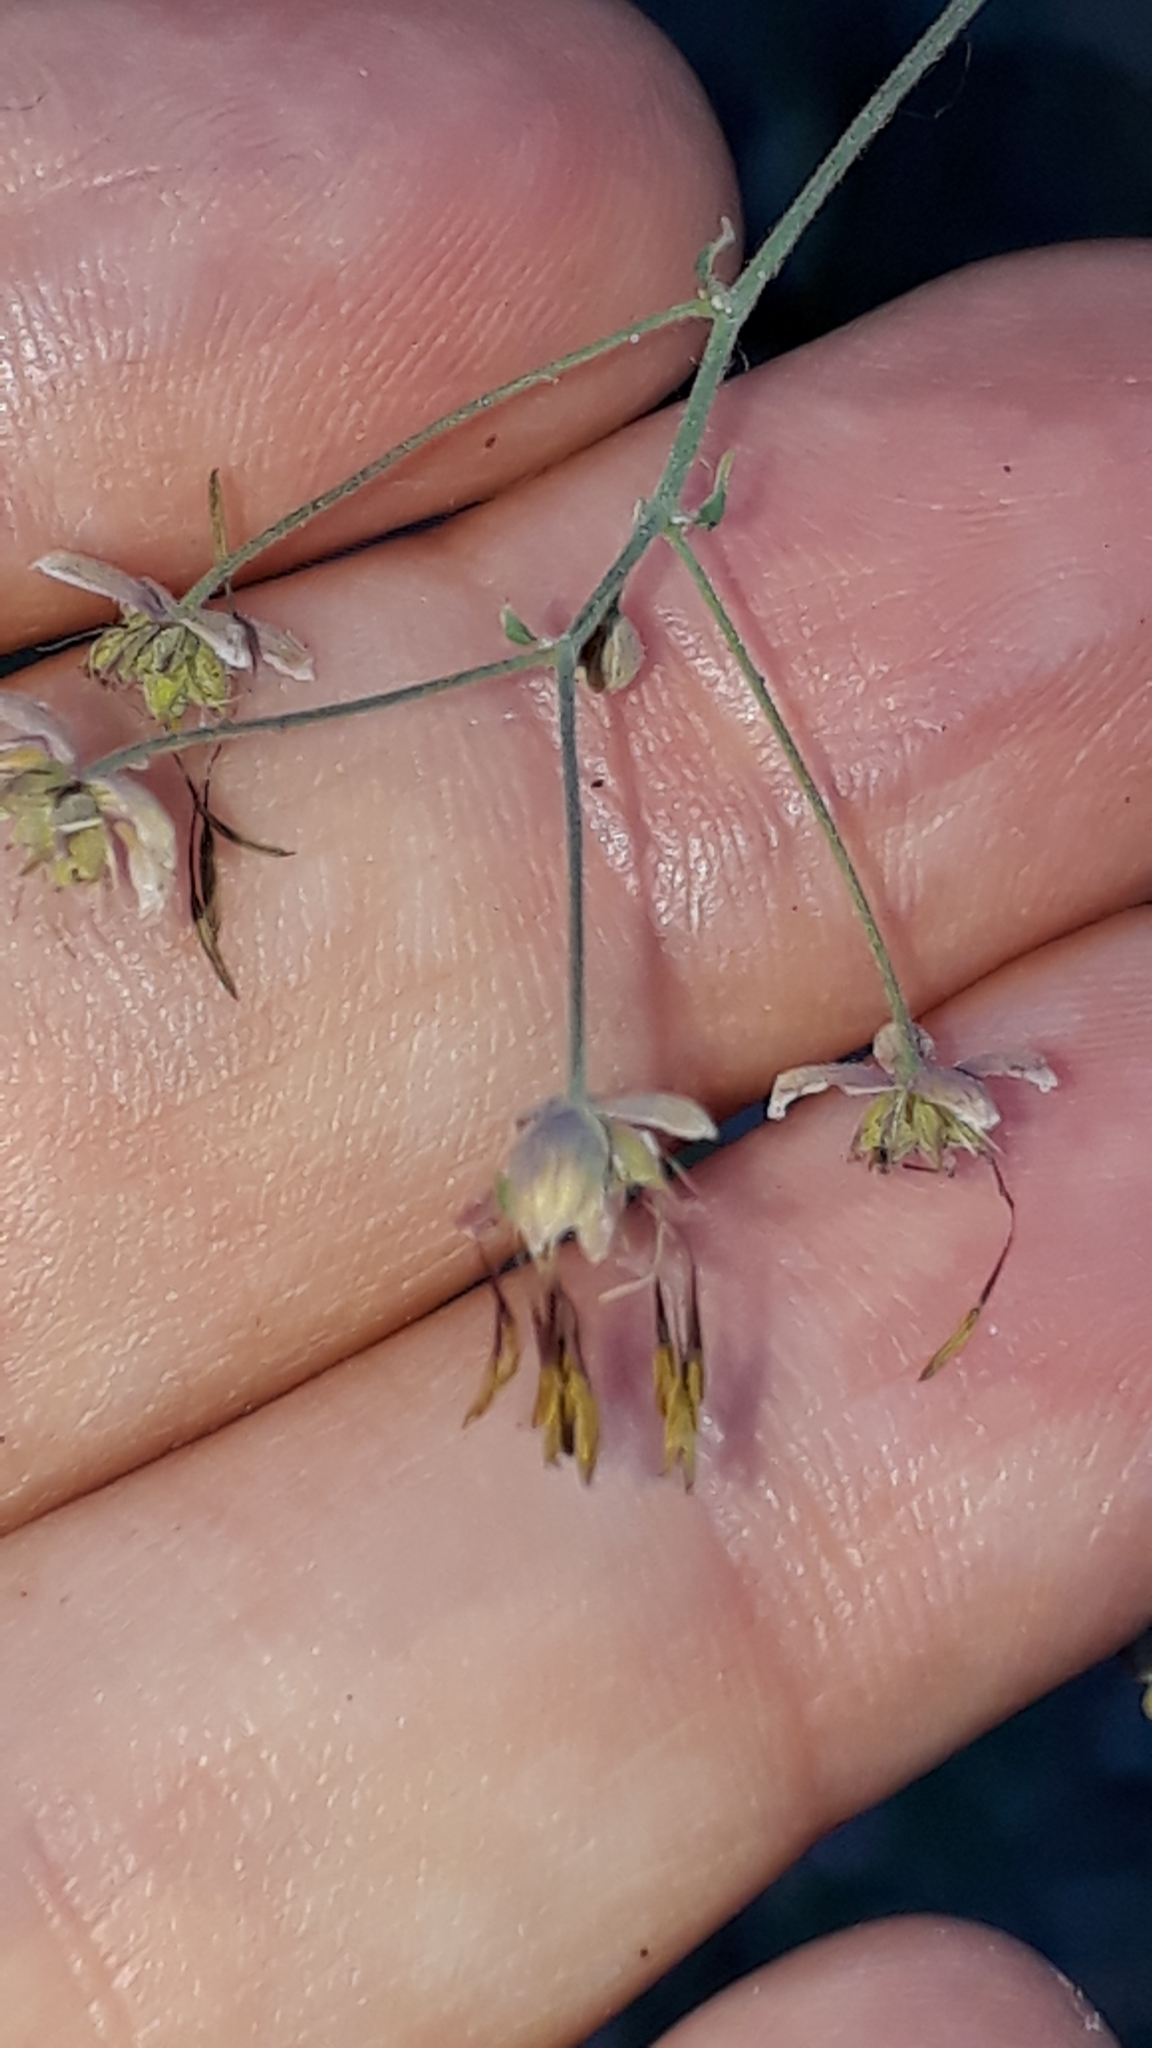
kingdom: Plantae
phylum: Tracheophyta
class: Magnoliopsida
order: Ranunculales
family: Ranunculaceae
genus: Thalictrum
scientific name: Thalictrum foetidum
